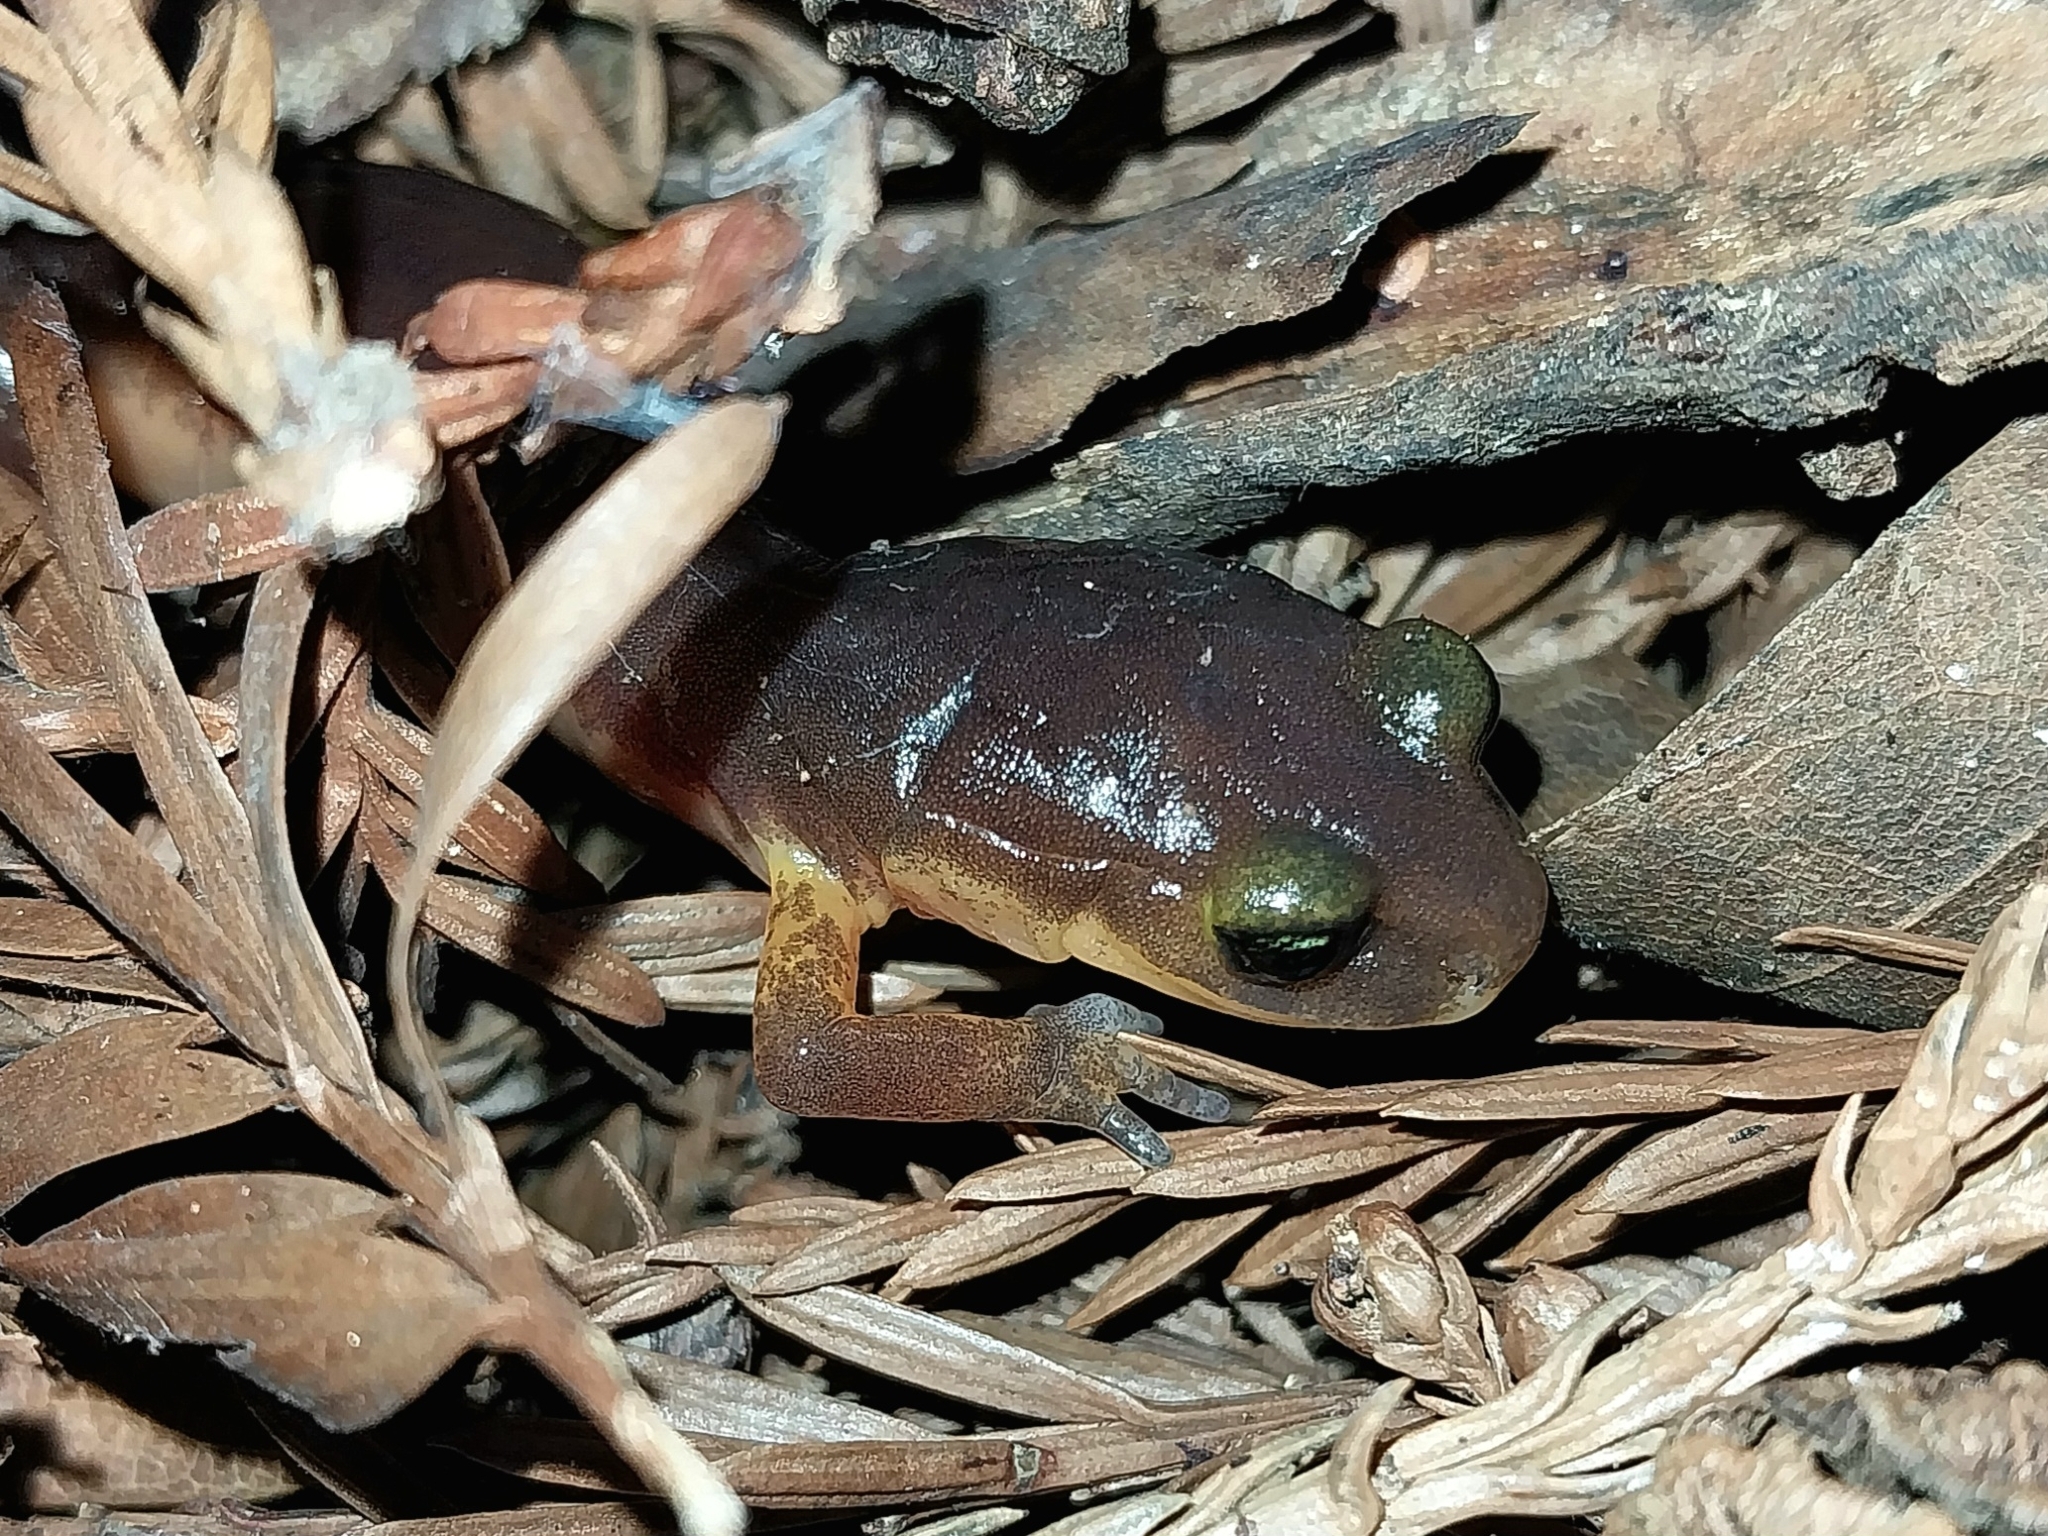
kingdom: Animalia
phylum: Chordata
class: Amphibia
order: Caudata
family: Plethodontidae
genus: Ensatina
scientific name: Ensatina eschscholtzii
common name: Ensatina
